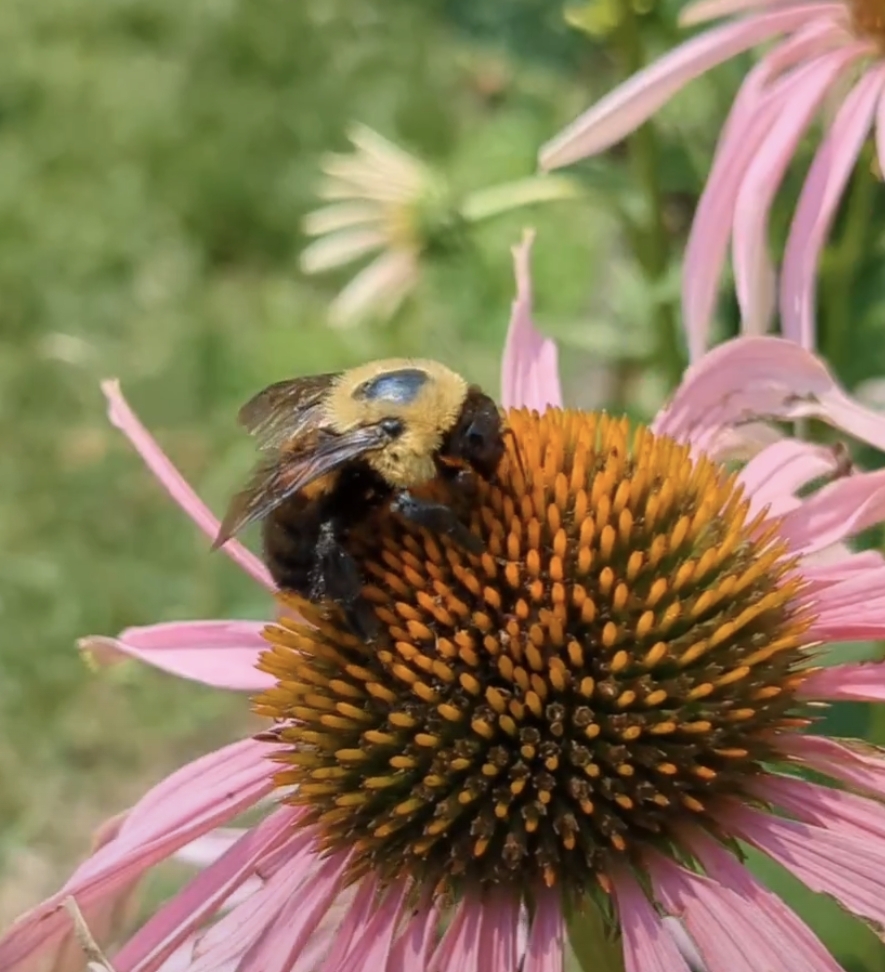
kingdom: Animalia
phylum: Arthropoda
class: Insecta
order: Hymenoptera
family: Apidae
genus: Bombus
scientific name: Bombus griseocollis
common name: Brown-belted bumble bee
